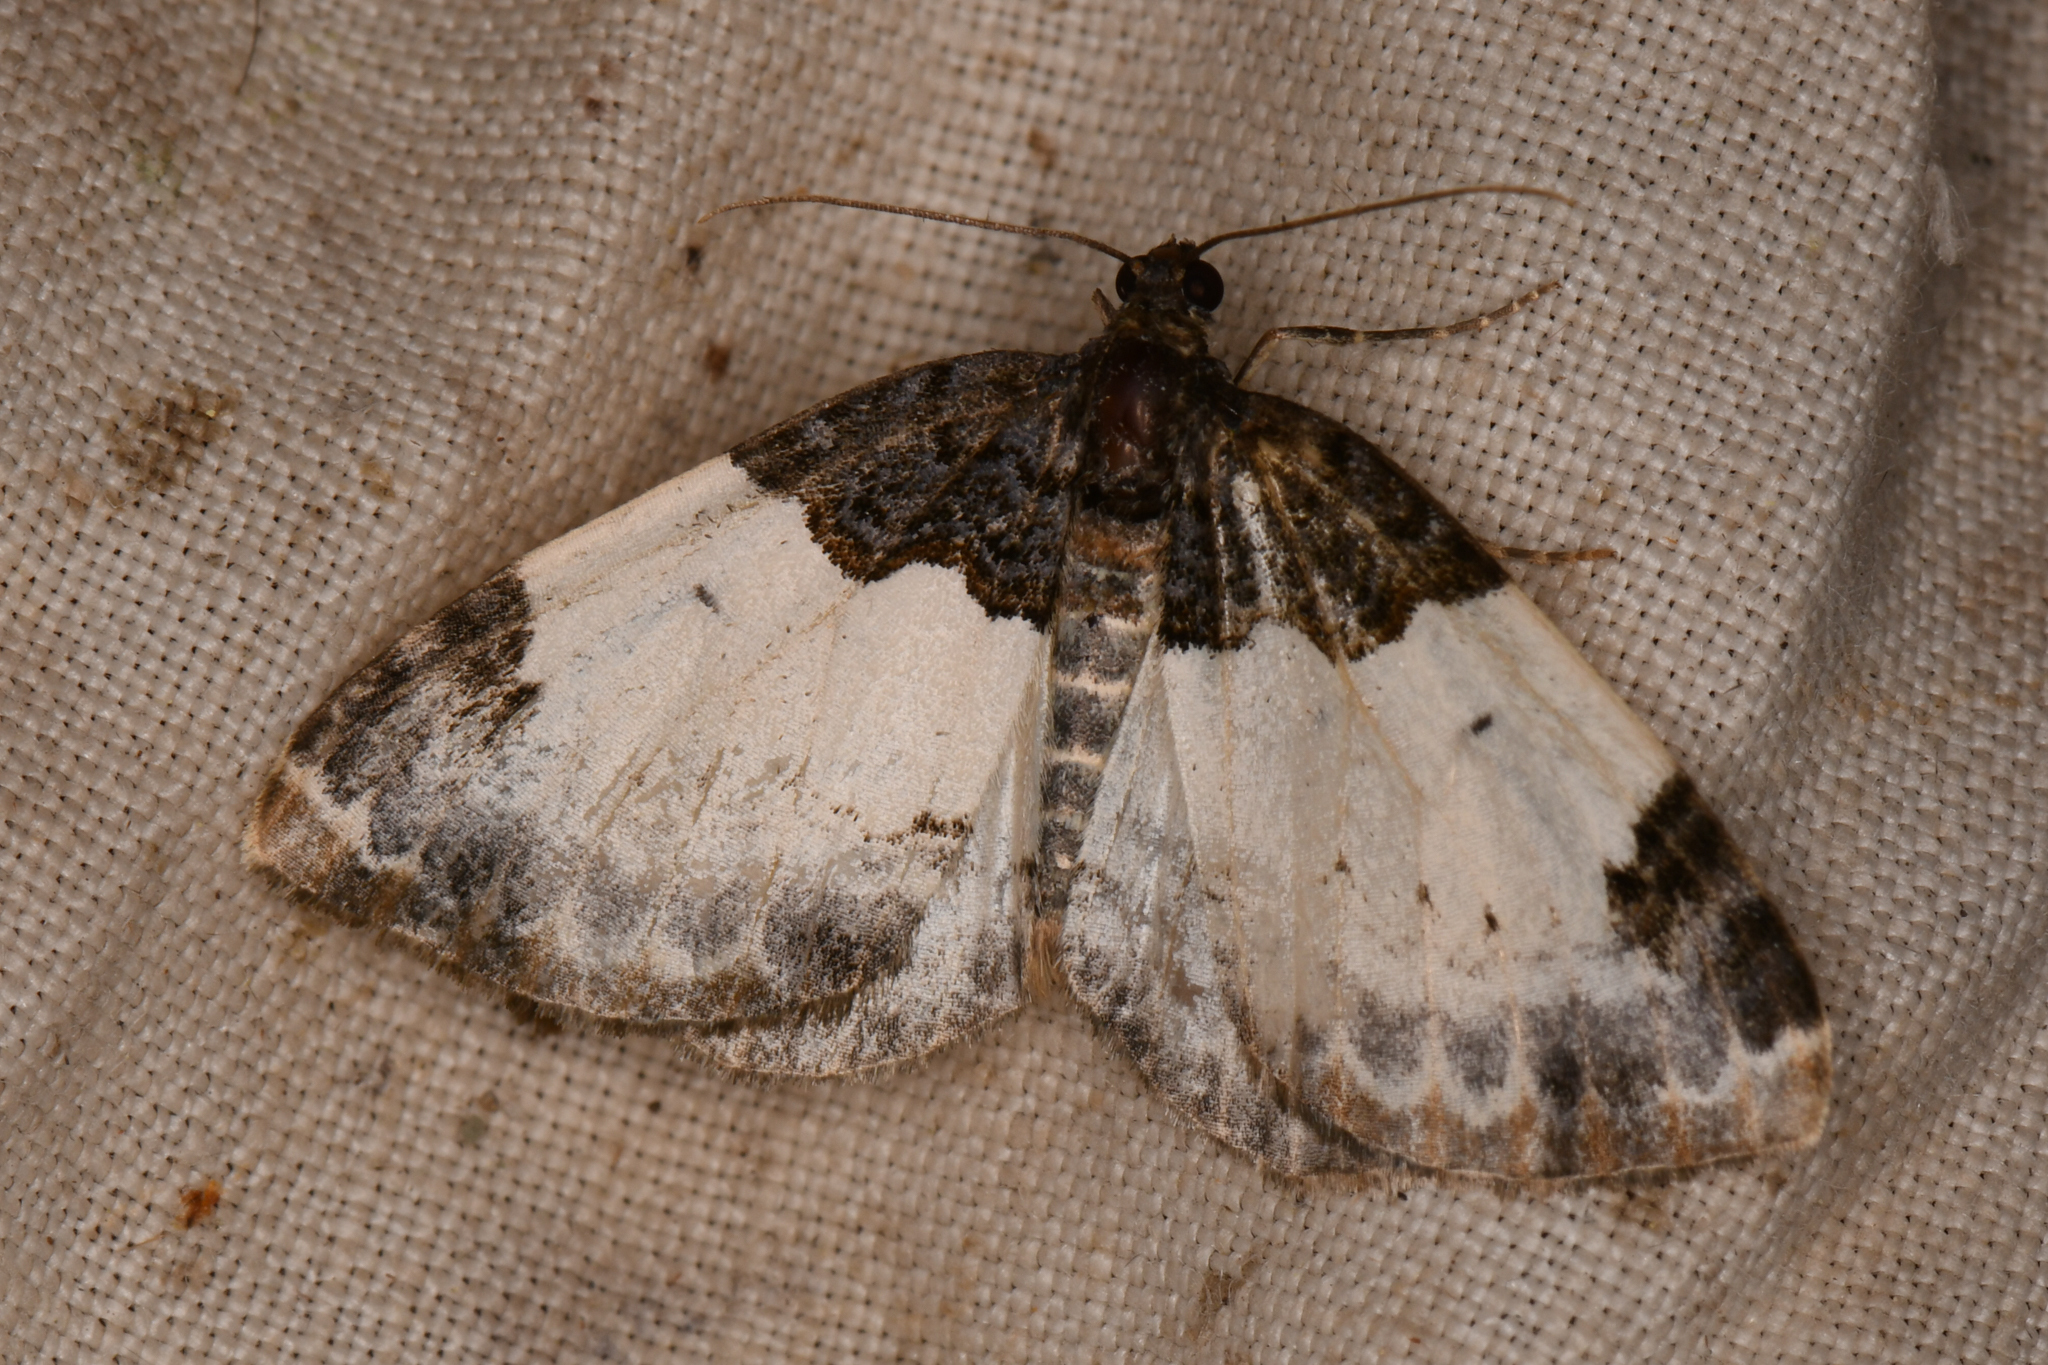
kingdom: Animalia
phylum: Arthropoda
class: Insecta
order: Lepidoptera
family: Geometridae
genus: Mesoleuca
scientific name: Mesoleuca ruficillata
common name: White-ribboned carpet moth
